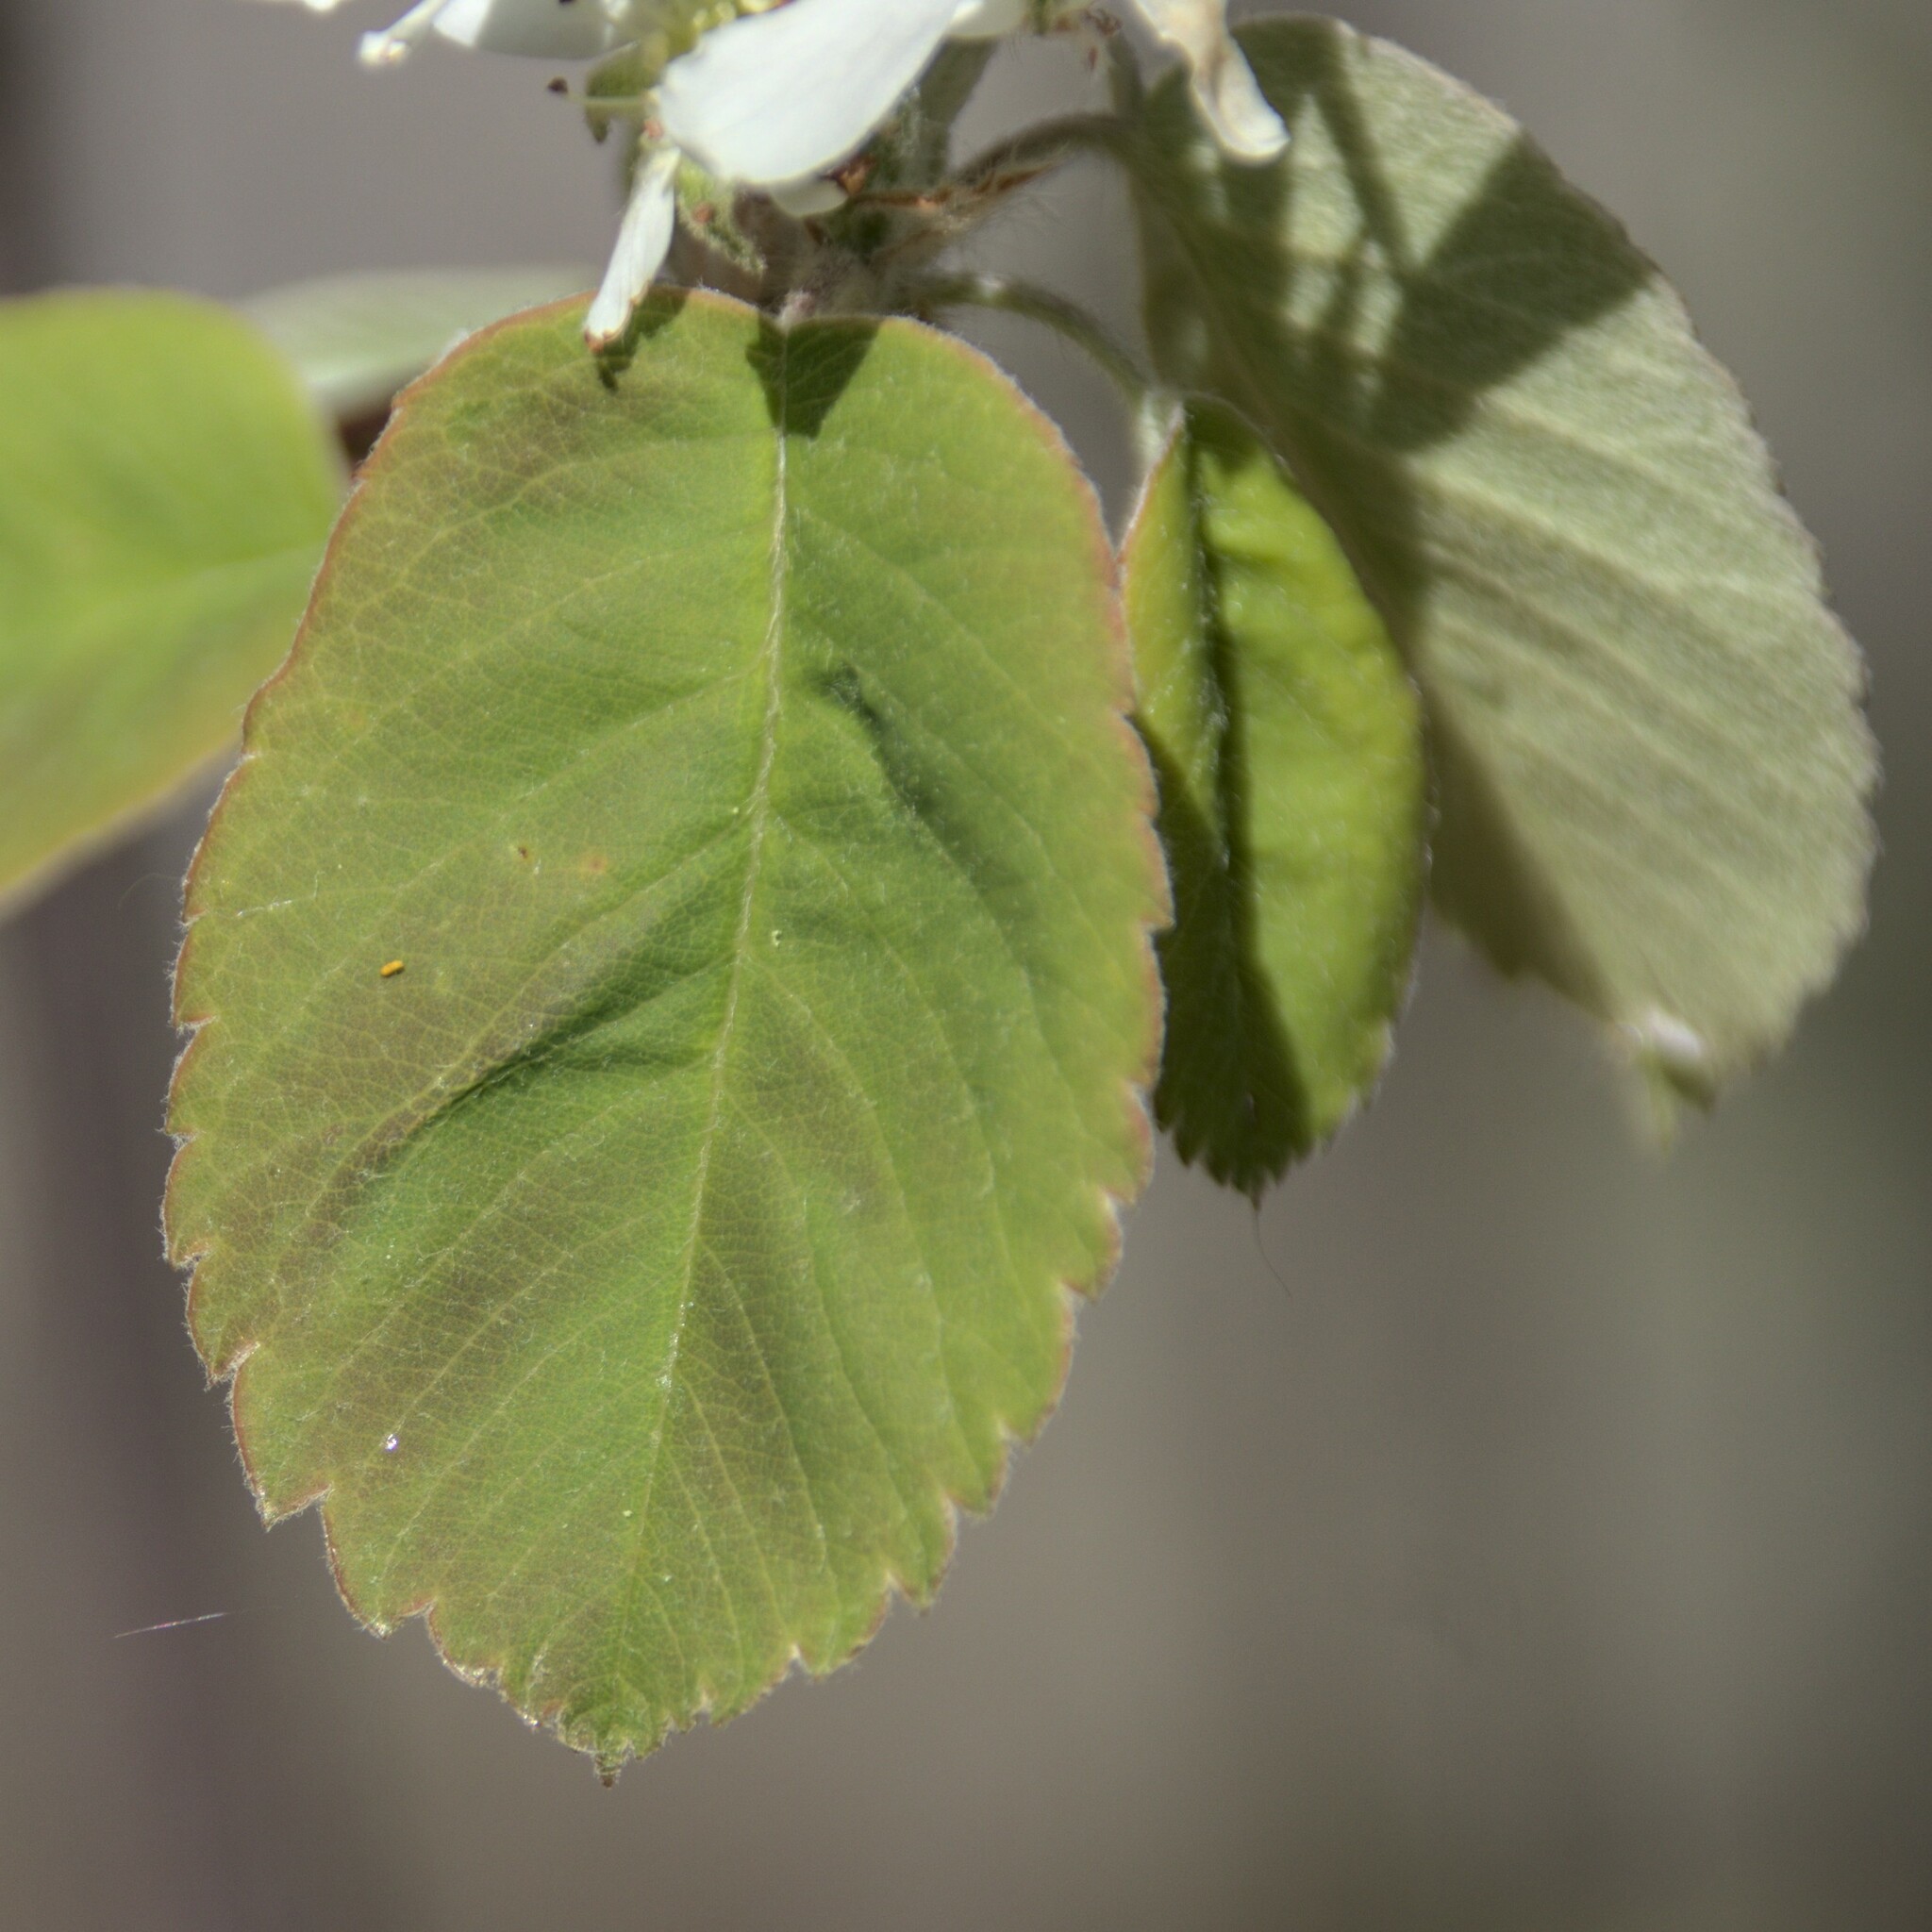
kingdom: Plantae
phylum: Tracheophyta
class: Magnoliopsida
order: Rosales
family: Rosaceae
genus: Amelanchier
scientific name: Amelanchier alnifolia
